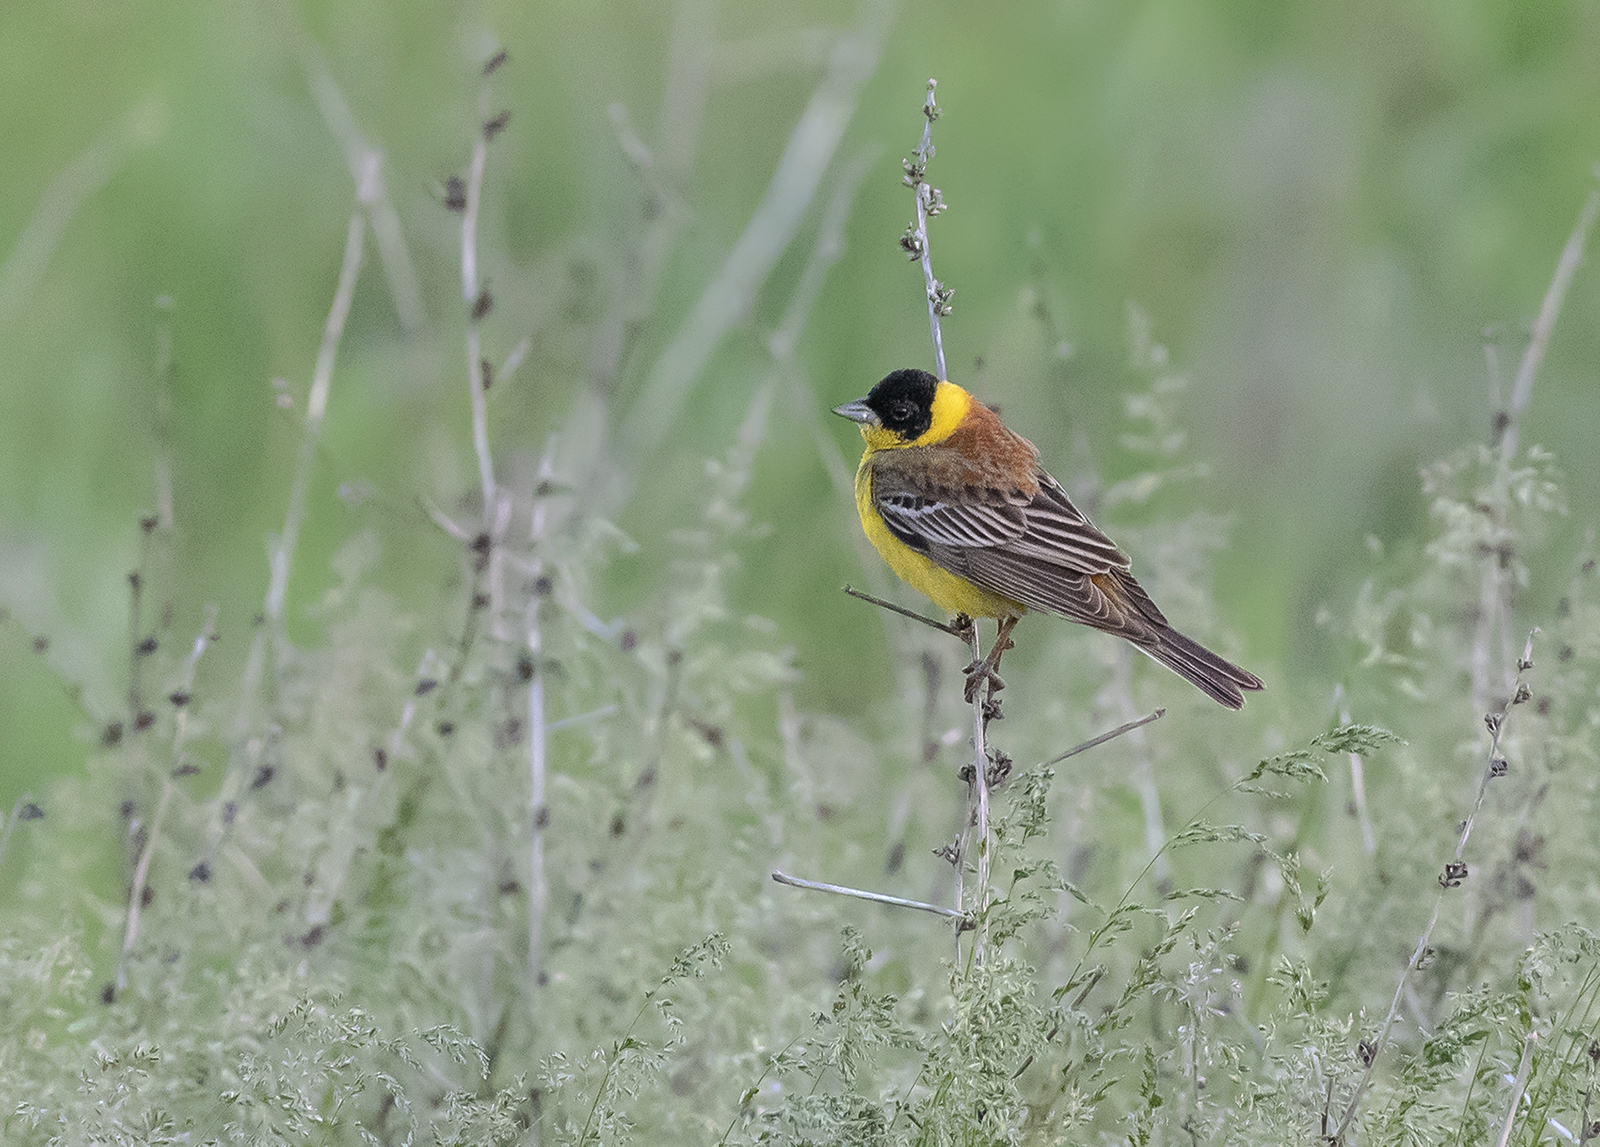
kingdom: Animalia
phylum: Chordata
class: Aves
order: Passeriformes
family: Emberizidae
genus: Emberiza
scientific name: Emberiza melanocephala
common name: Black-headed bunting
